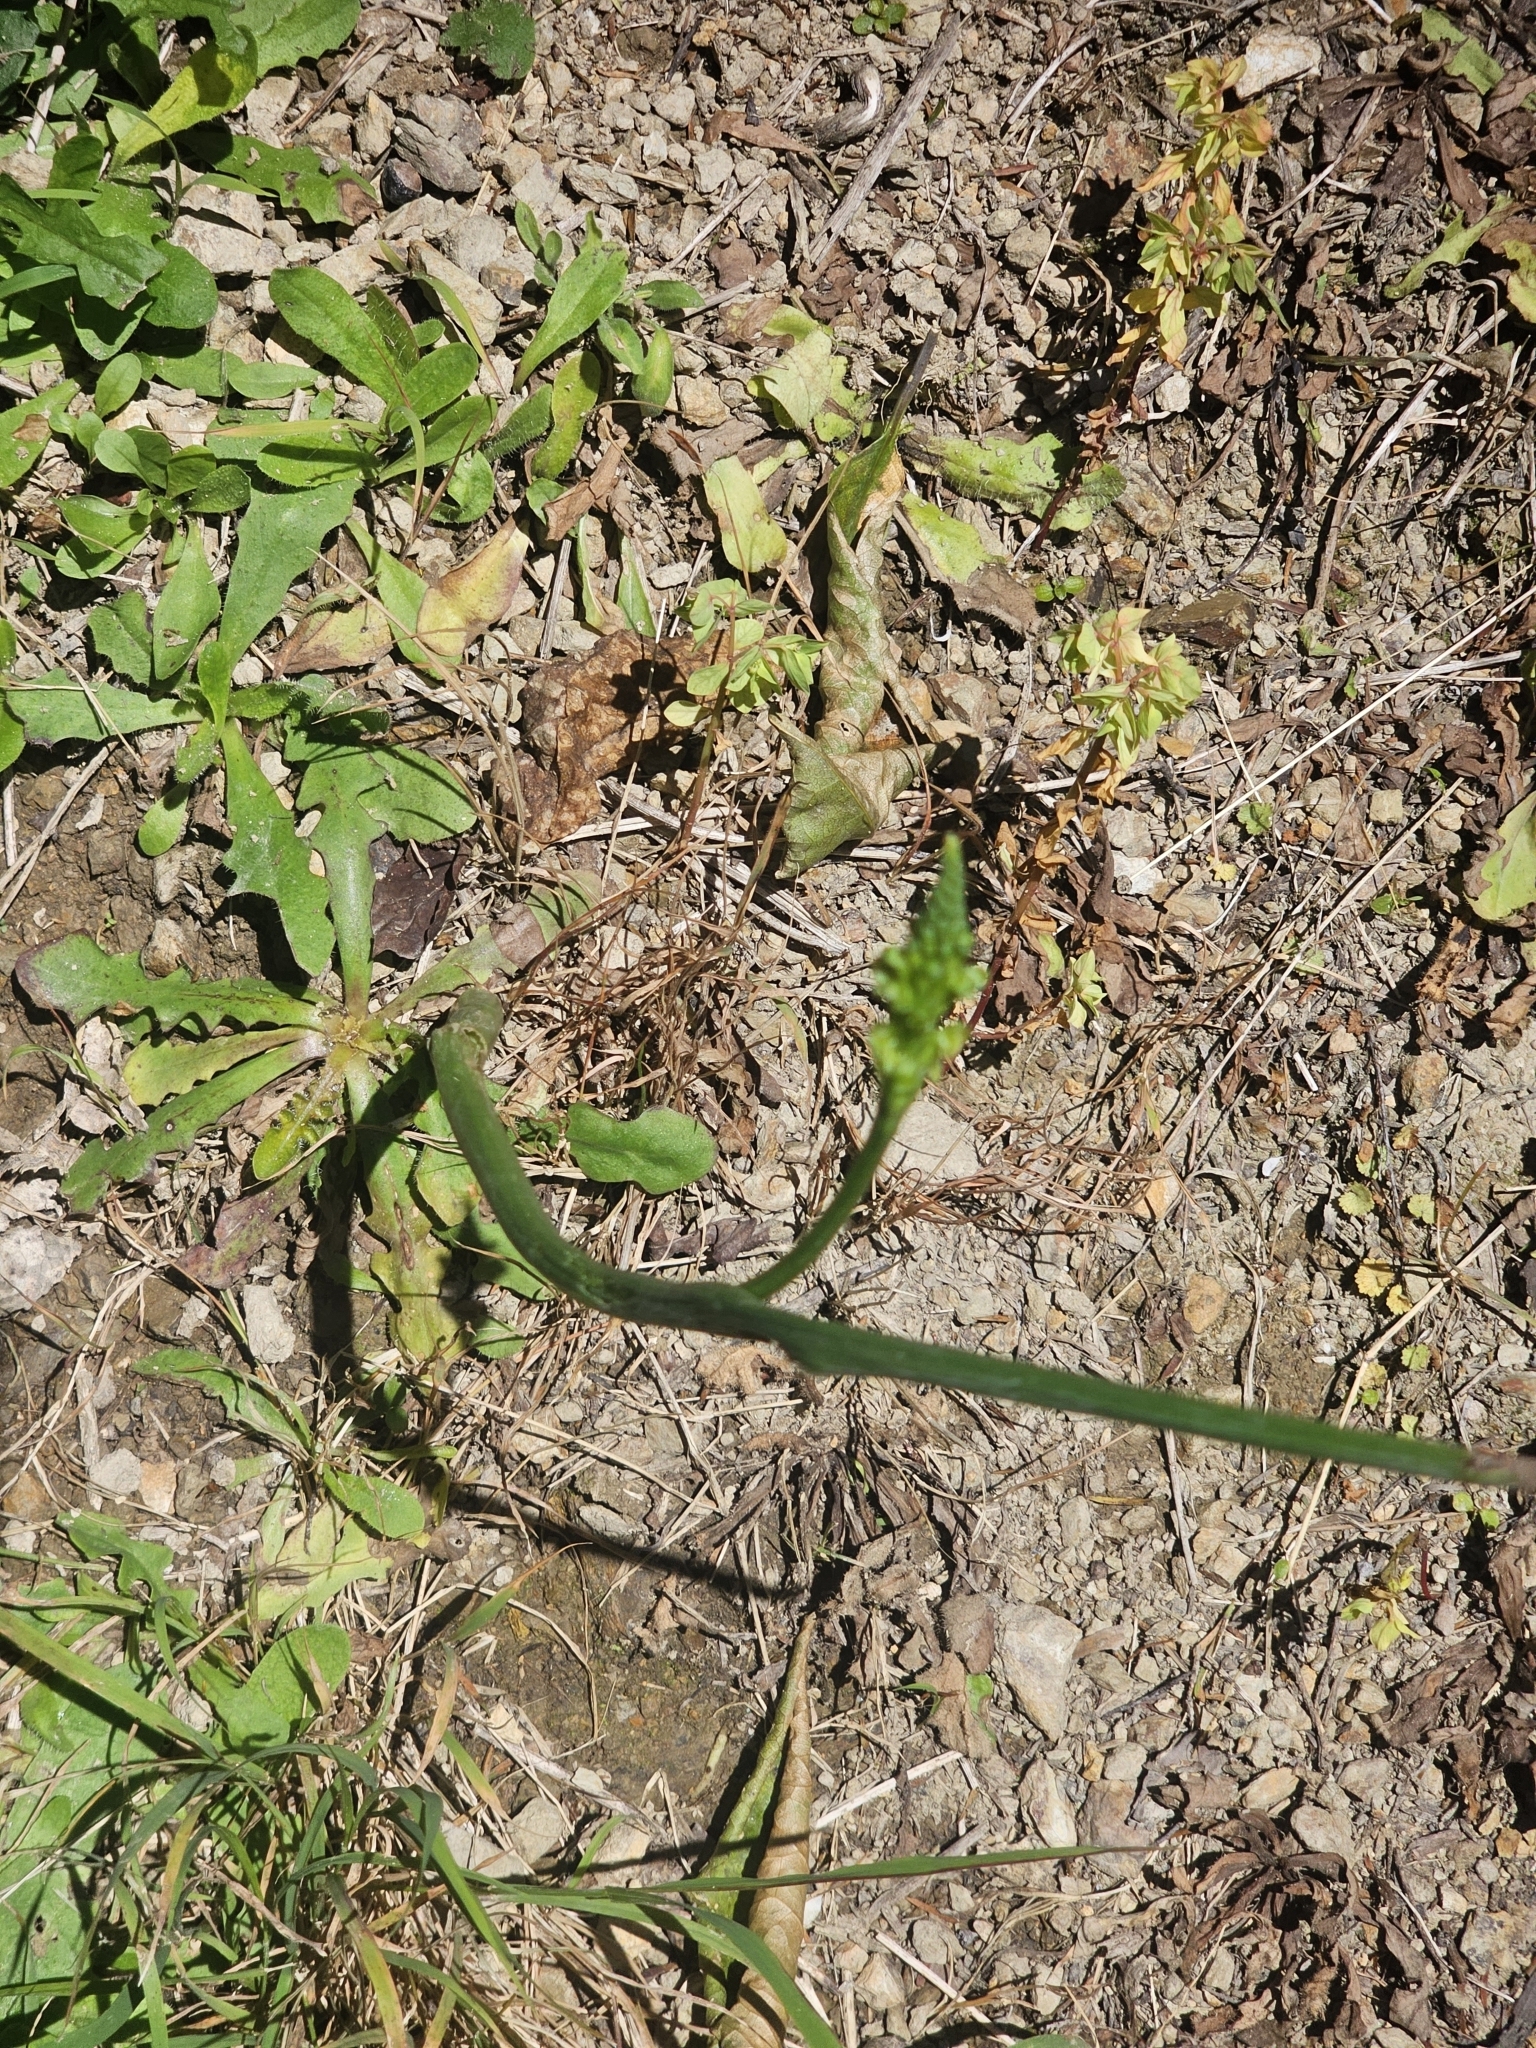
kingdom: Plantae
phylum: Tracheophyta
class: Liliopsida
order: Asparagales
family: Orchidaceae
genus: Microtis
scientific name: Microtis unifolia
